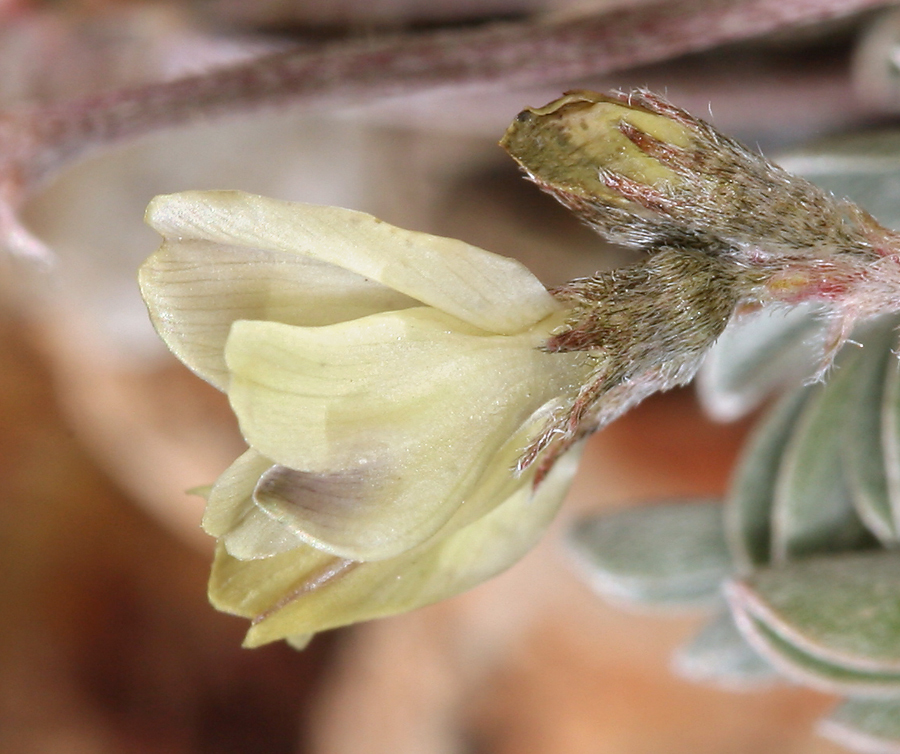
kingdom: Plantae
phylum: Tracheophyta
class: Magnoliopsida
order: Fabales
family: Fabaceae
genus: Astragalus
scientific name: Astragalus platytropis
